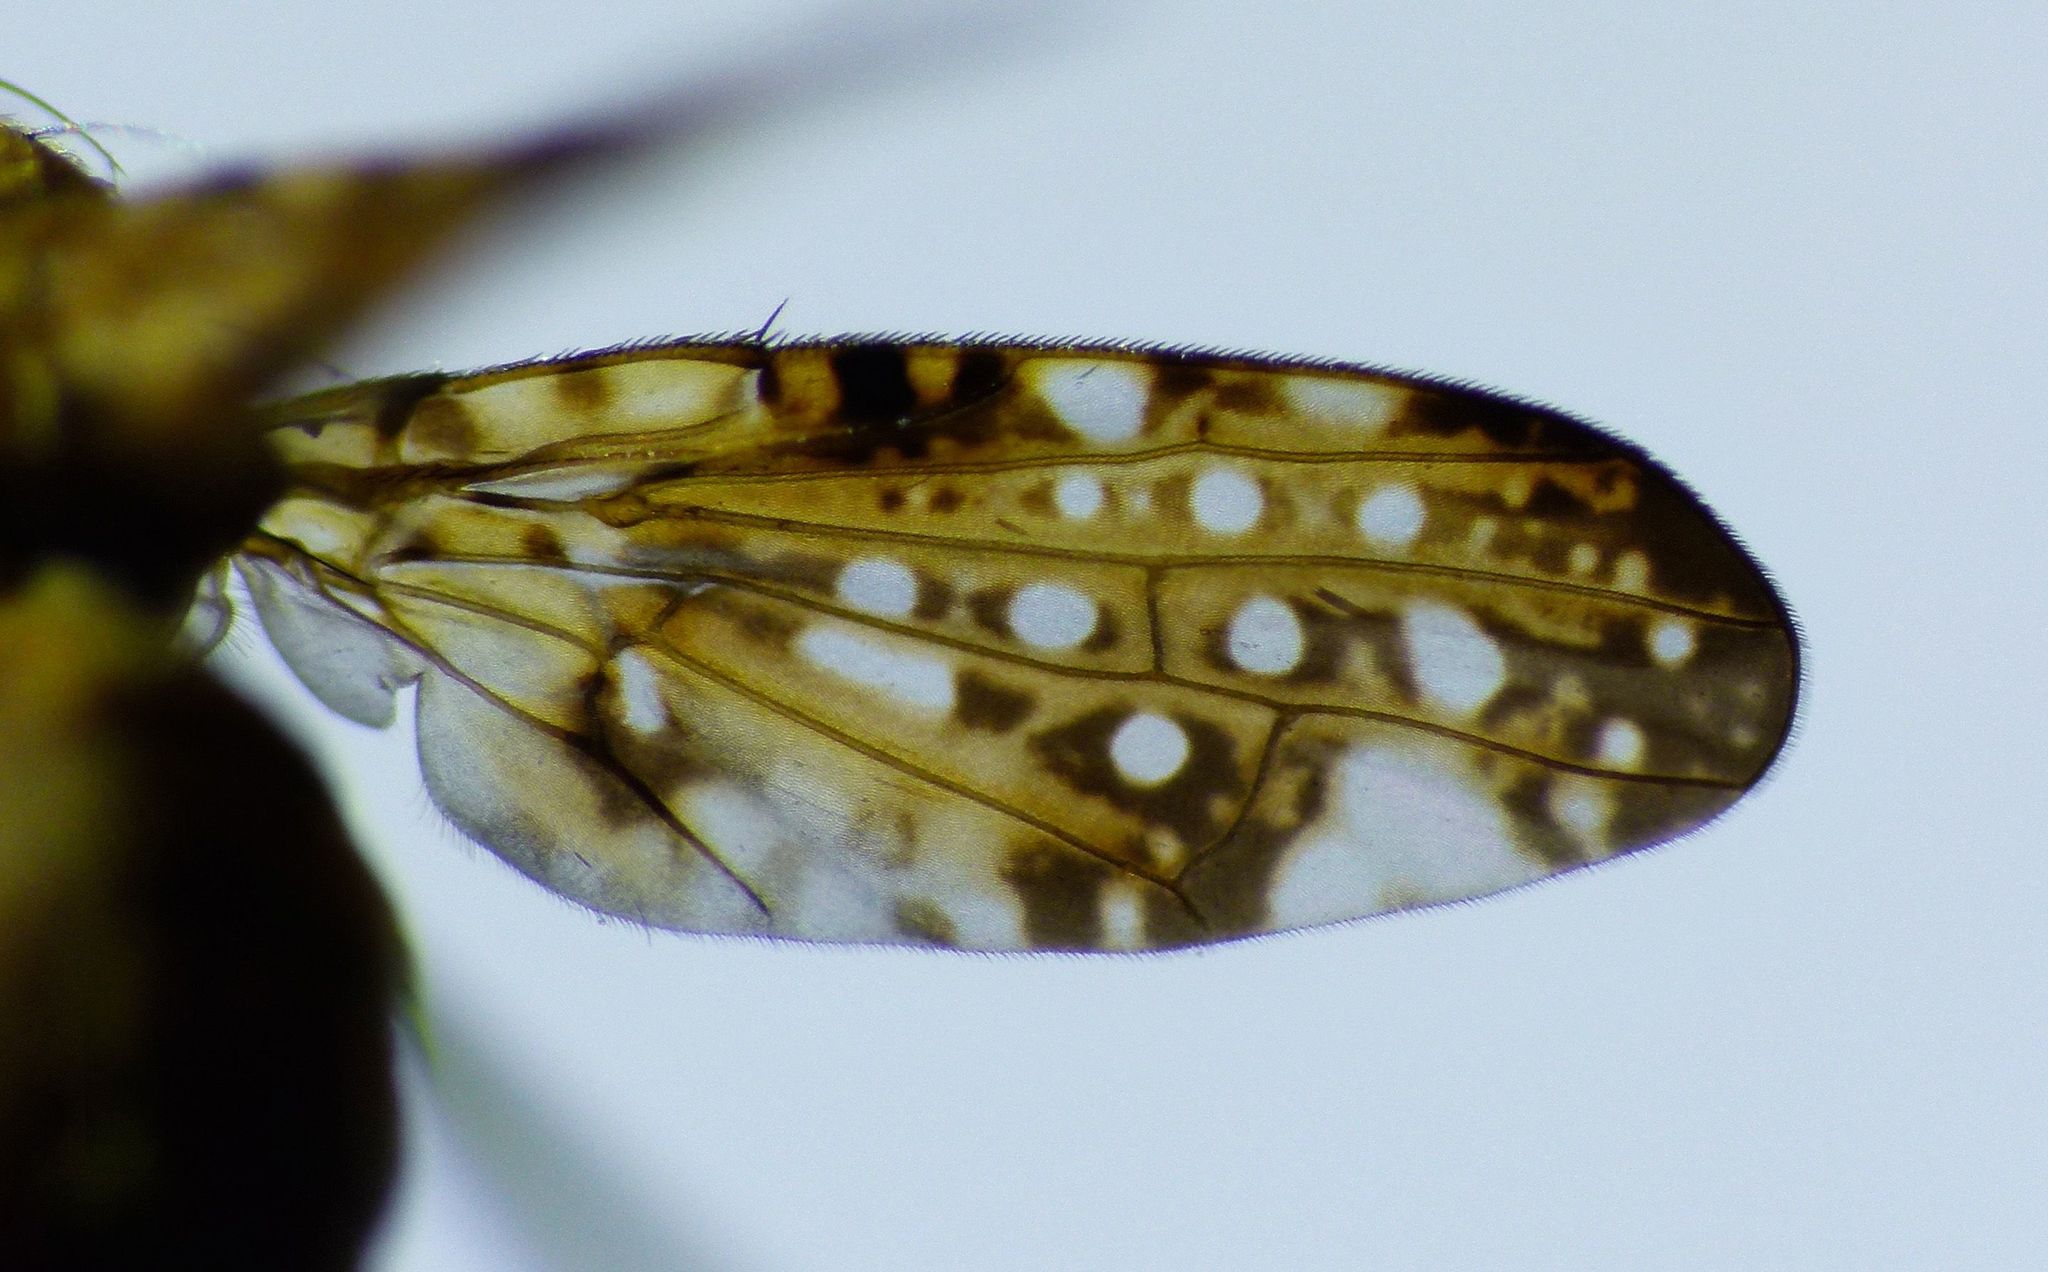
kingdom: Animalia
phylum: Arthropoda
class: Insecta
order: Diptera
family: Tephritidae
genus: Austrotephritis
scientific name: Austrotephritis
